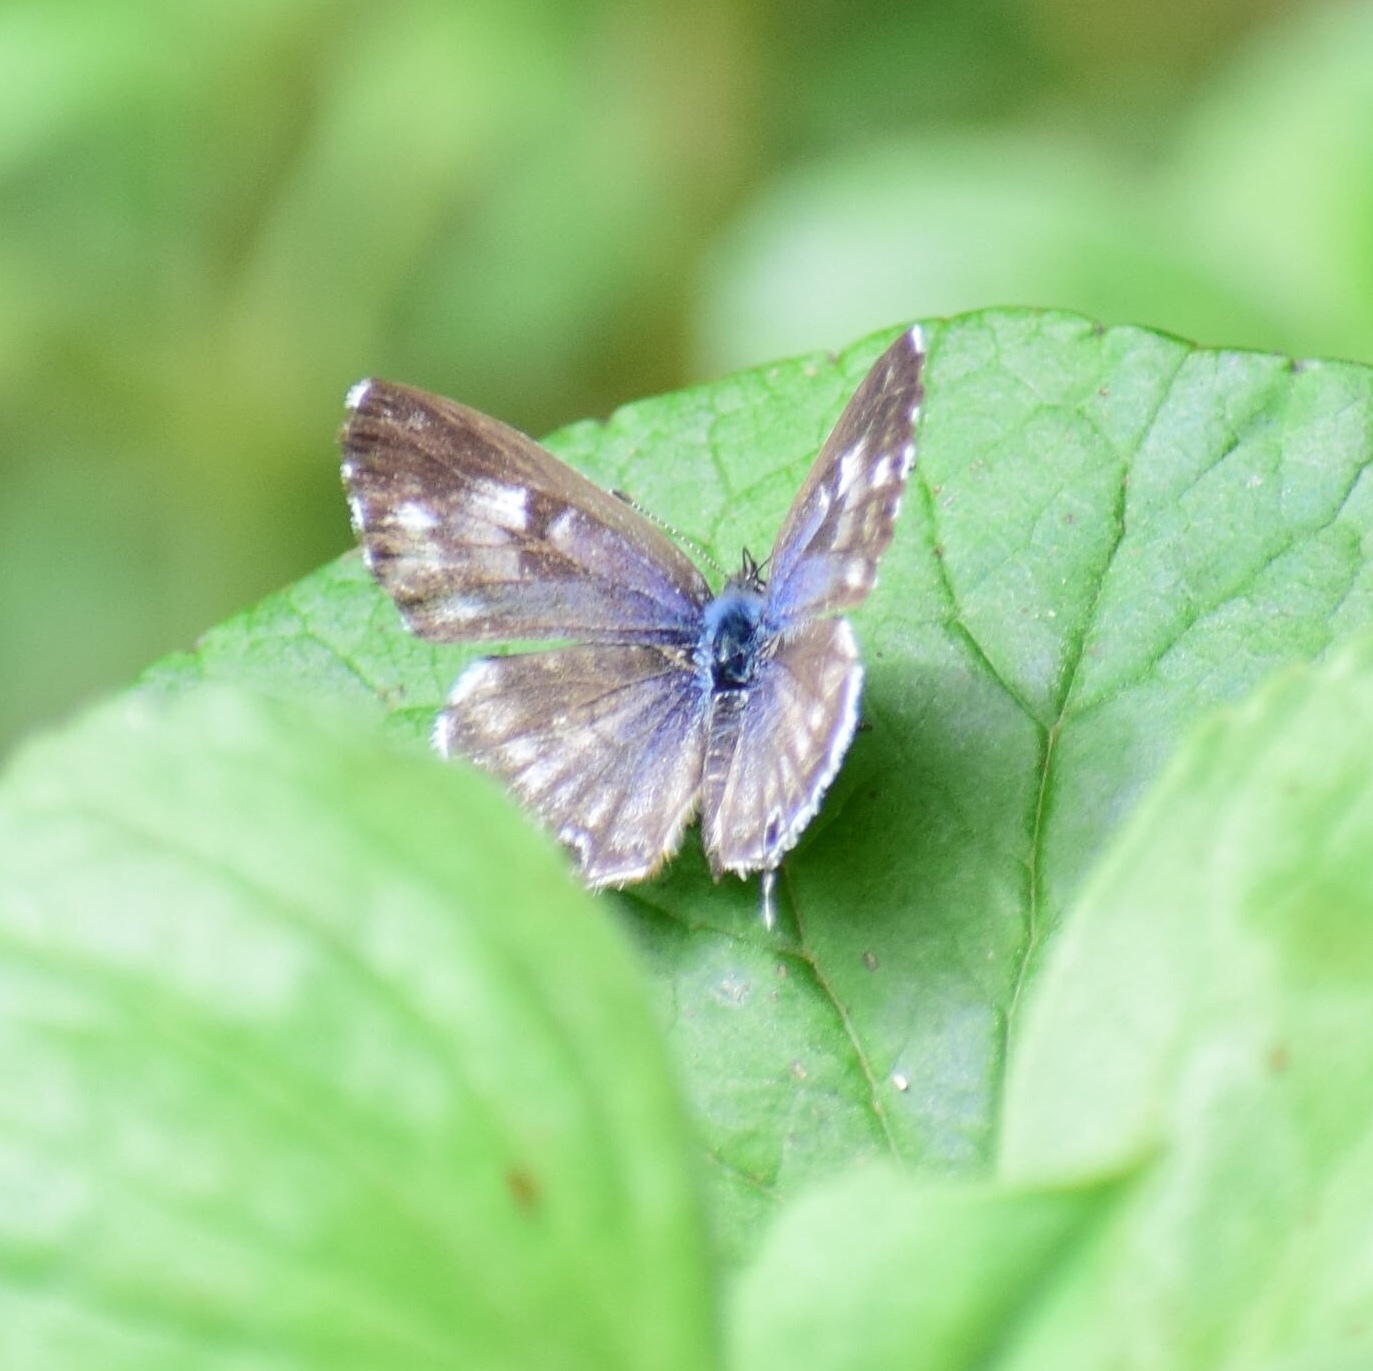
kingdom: Animalia
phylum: Arthropoda
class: Insecta
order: Lepidoptera
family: Lycaenidae
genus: Cacyreus
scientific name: Cacyreus lingeus
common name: Bush bronze
